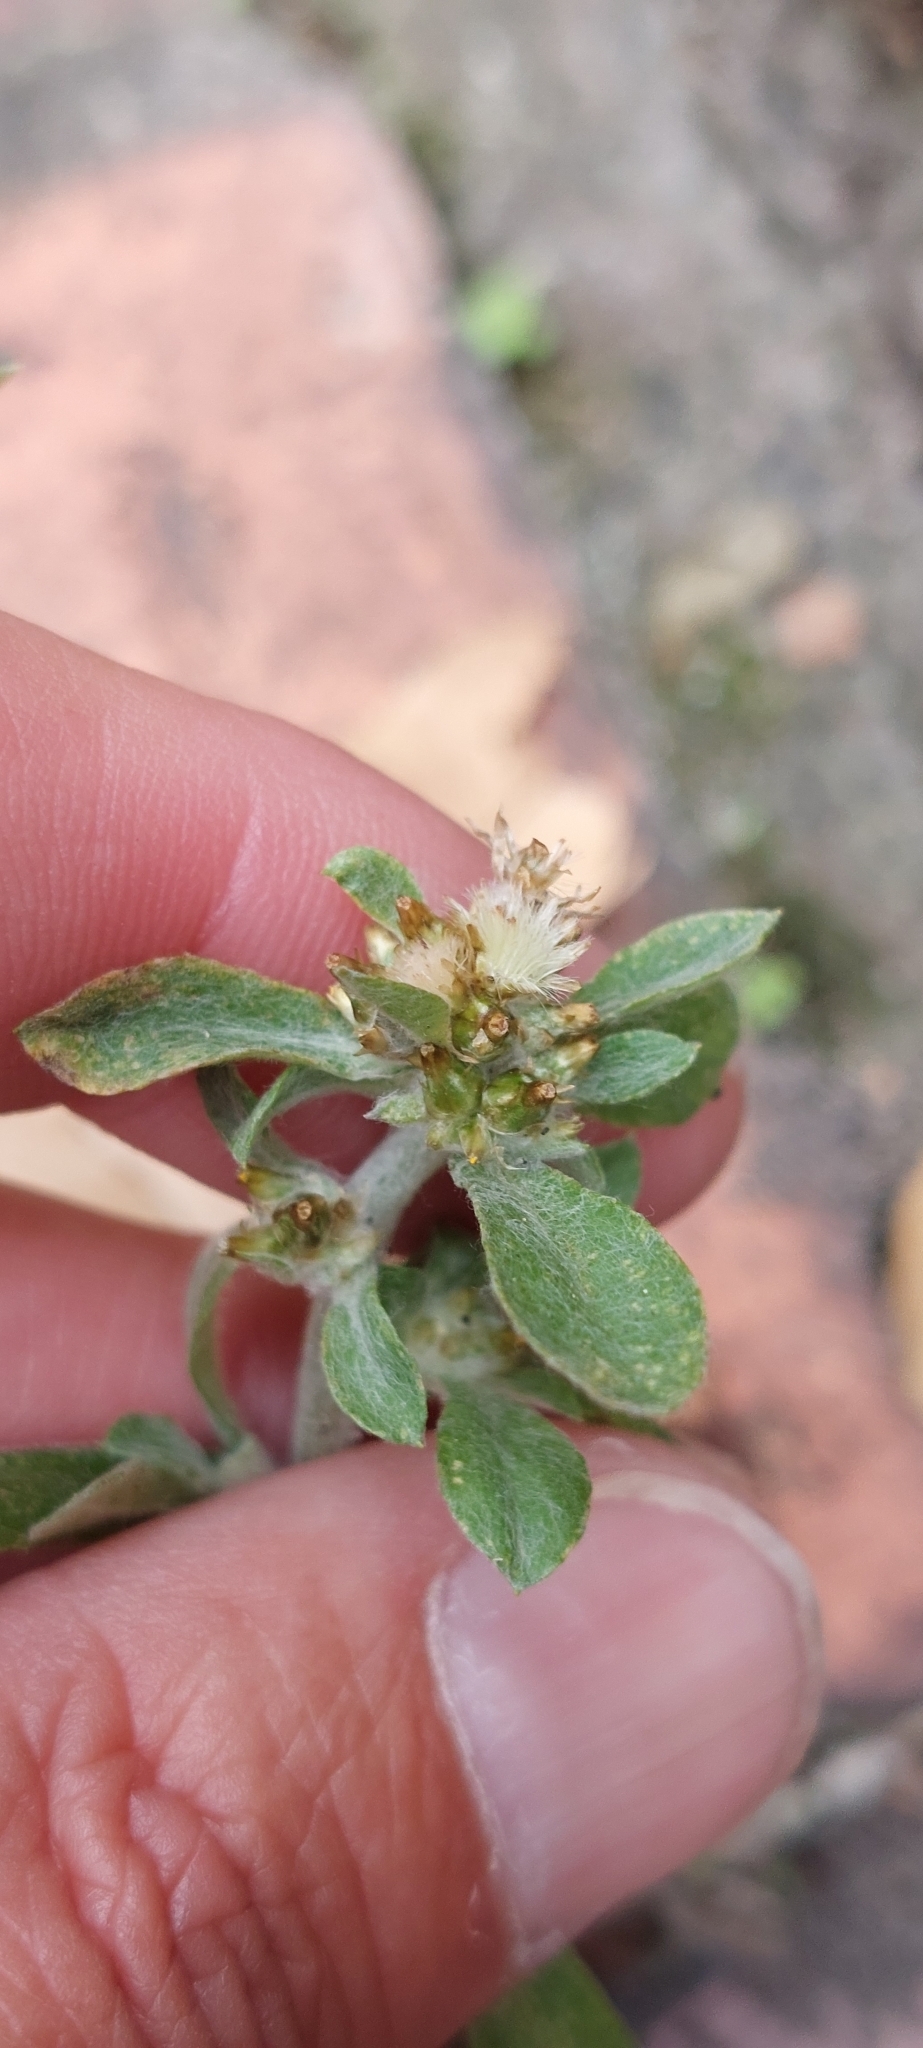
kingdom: Plantae
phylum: Tracheophyta
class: Magnoliopsida
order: Asterales
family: Asteraceae
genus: Gamochaeta
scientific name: Gamochaeta purpurea
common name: Purple cudweed
